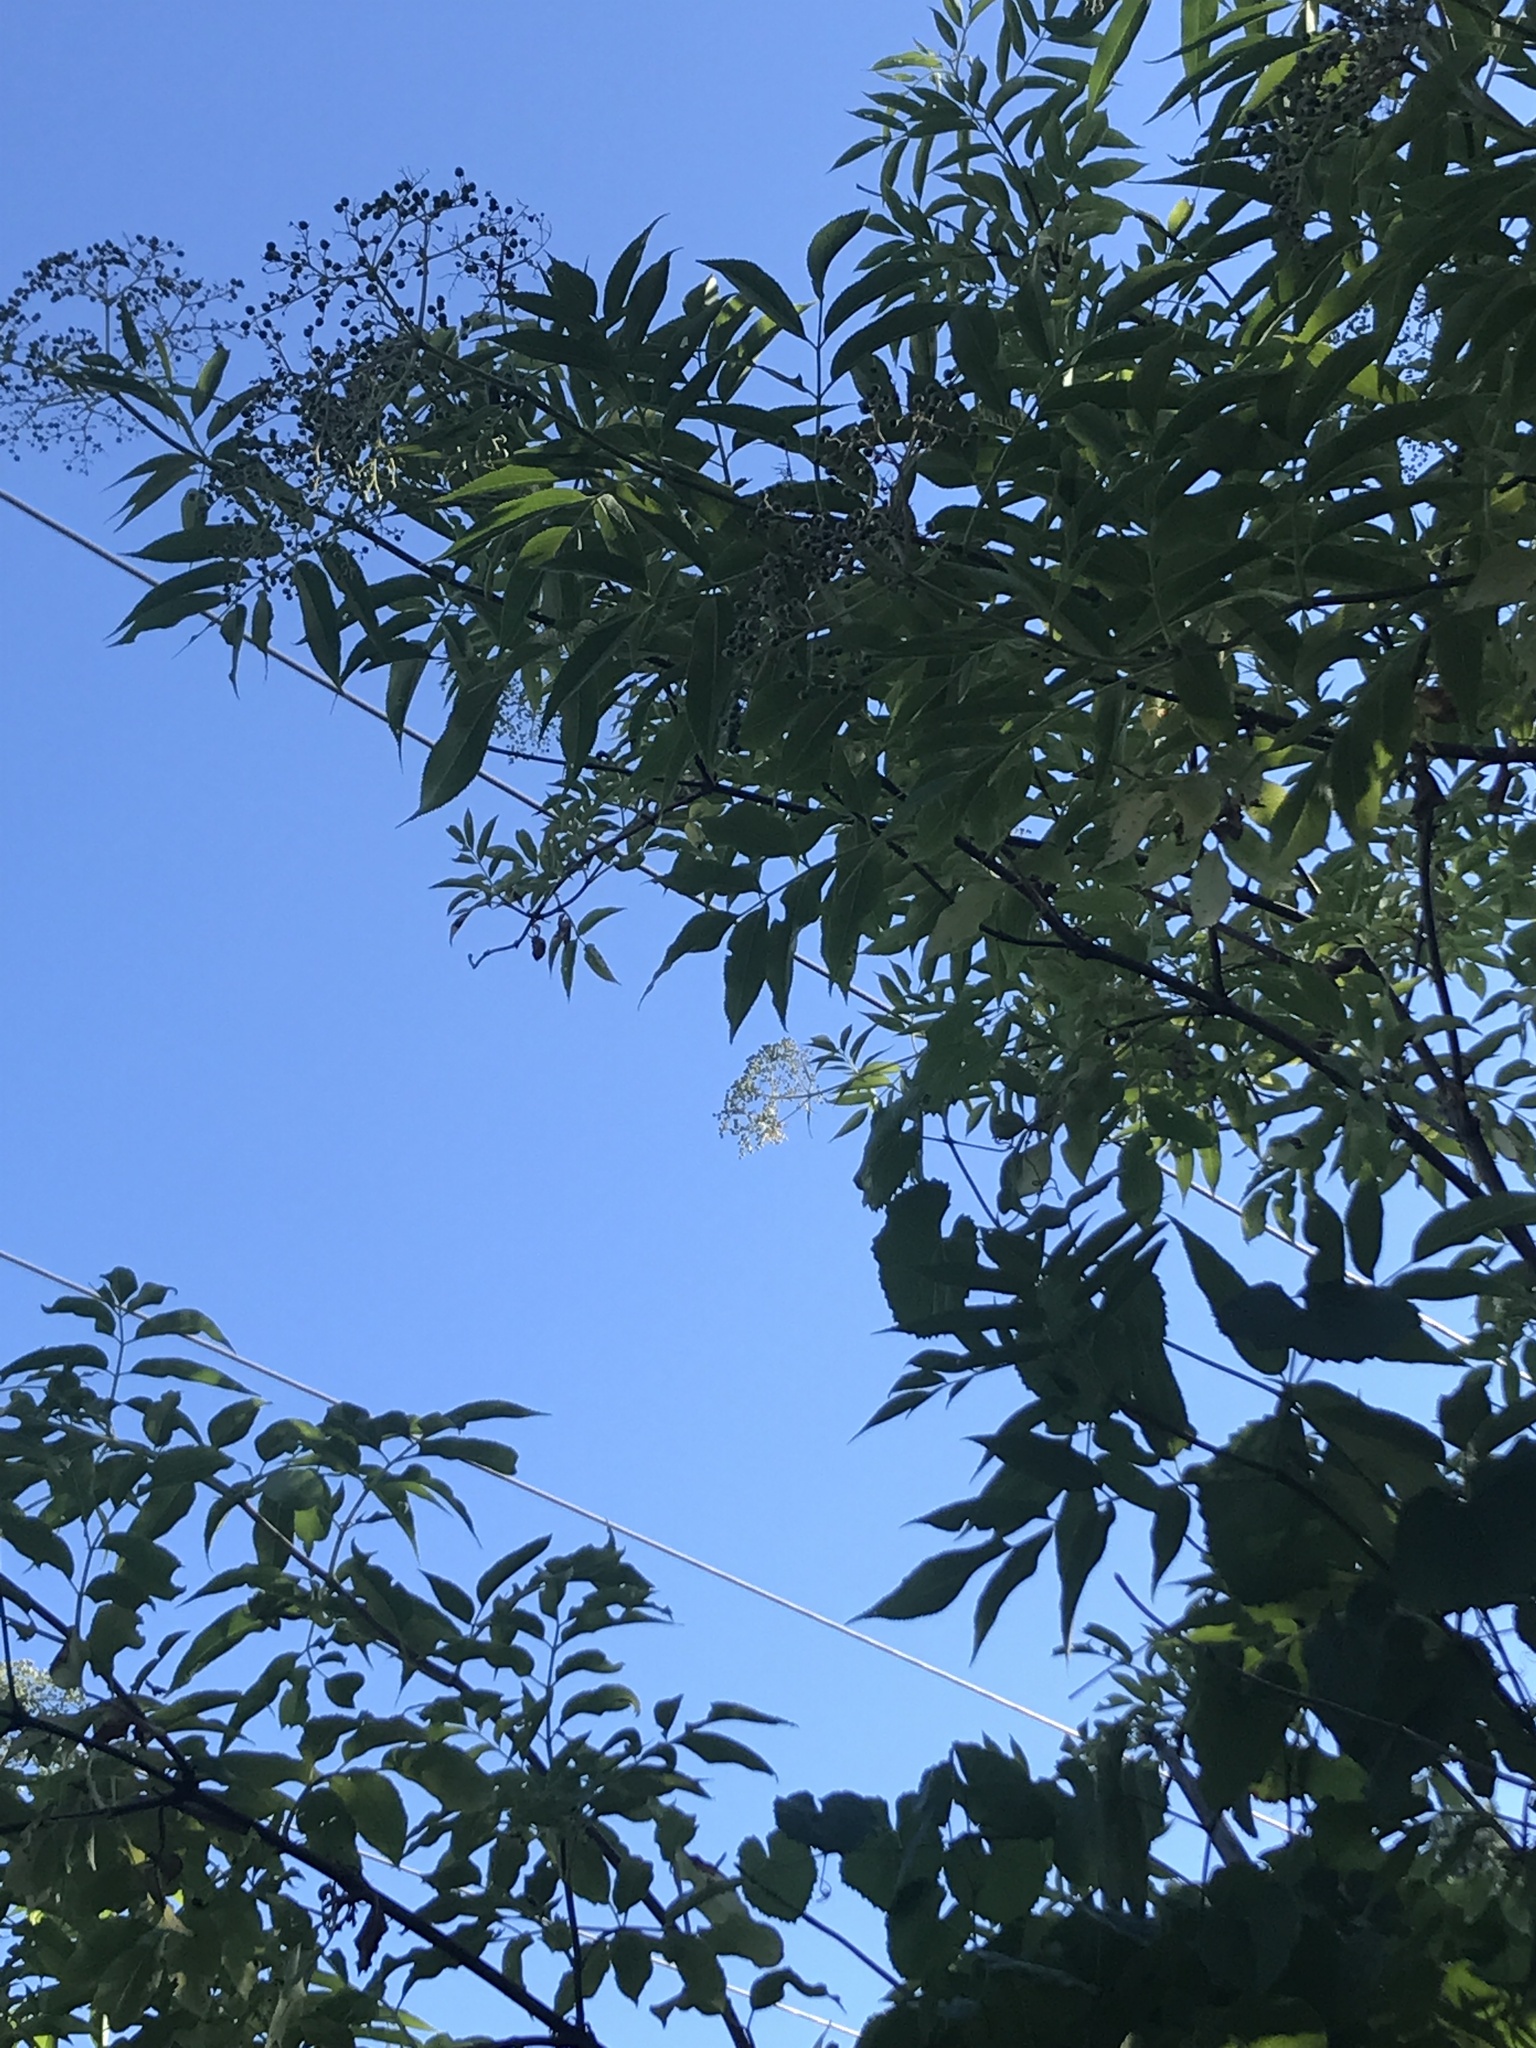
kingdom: Plantae
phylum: Tracheophyta
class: Magnoliopsida
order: Dipsacales
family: Viburnaceae
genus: Sambucus
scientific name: Sambucus cerulea
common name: Blue elder
